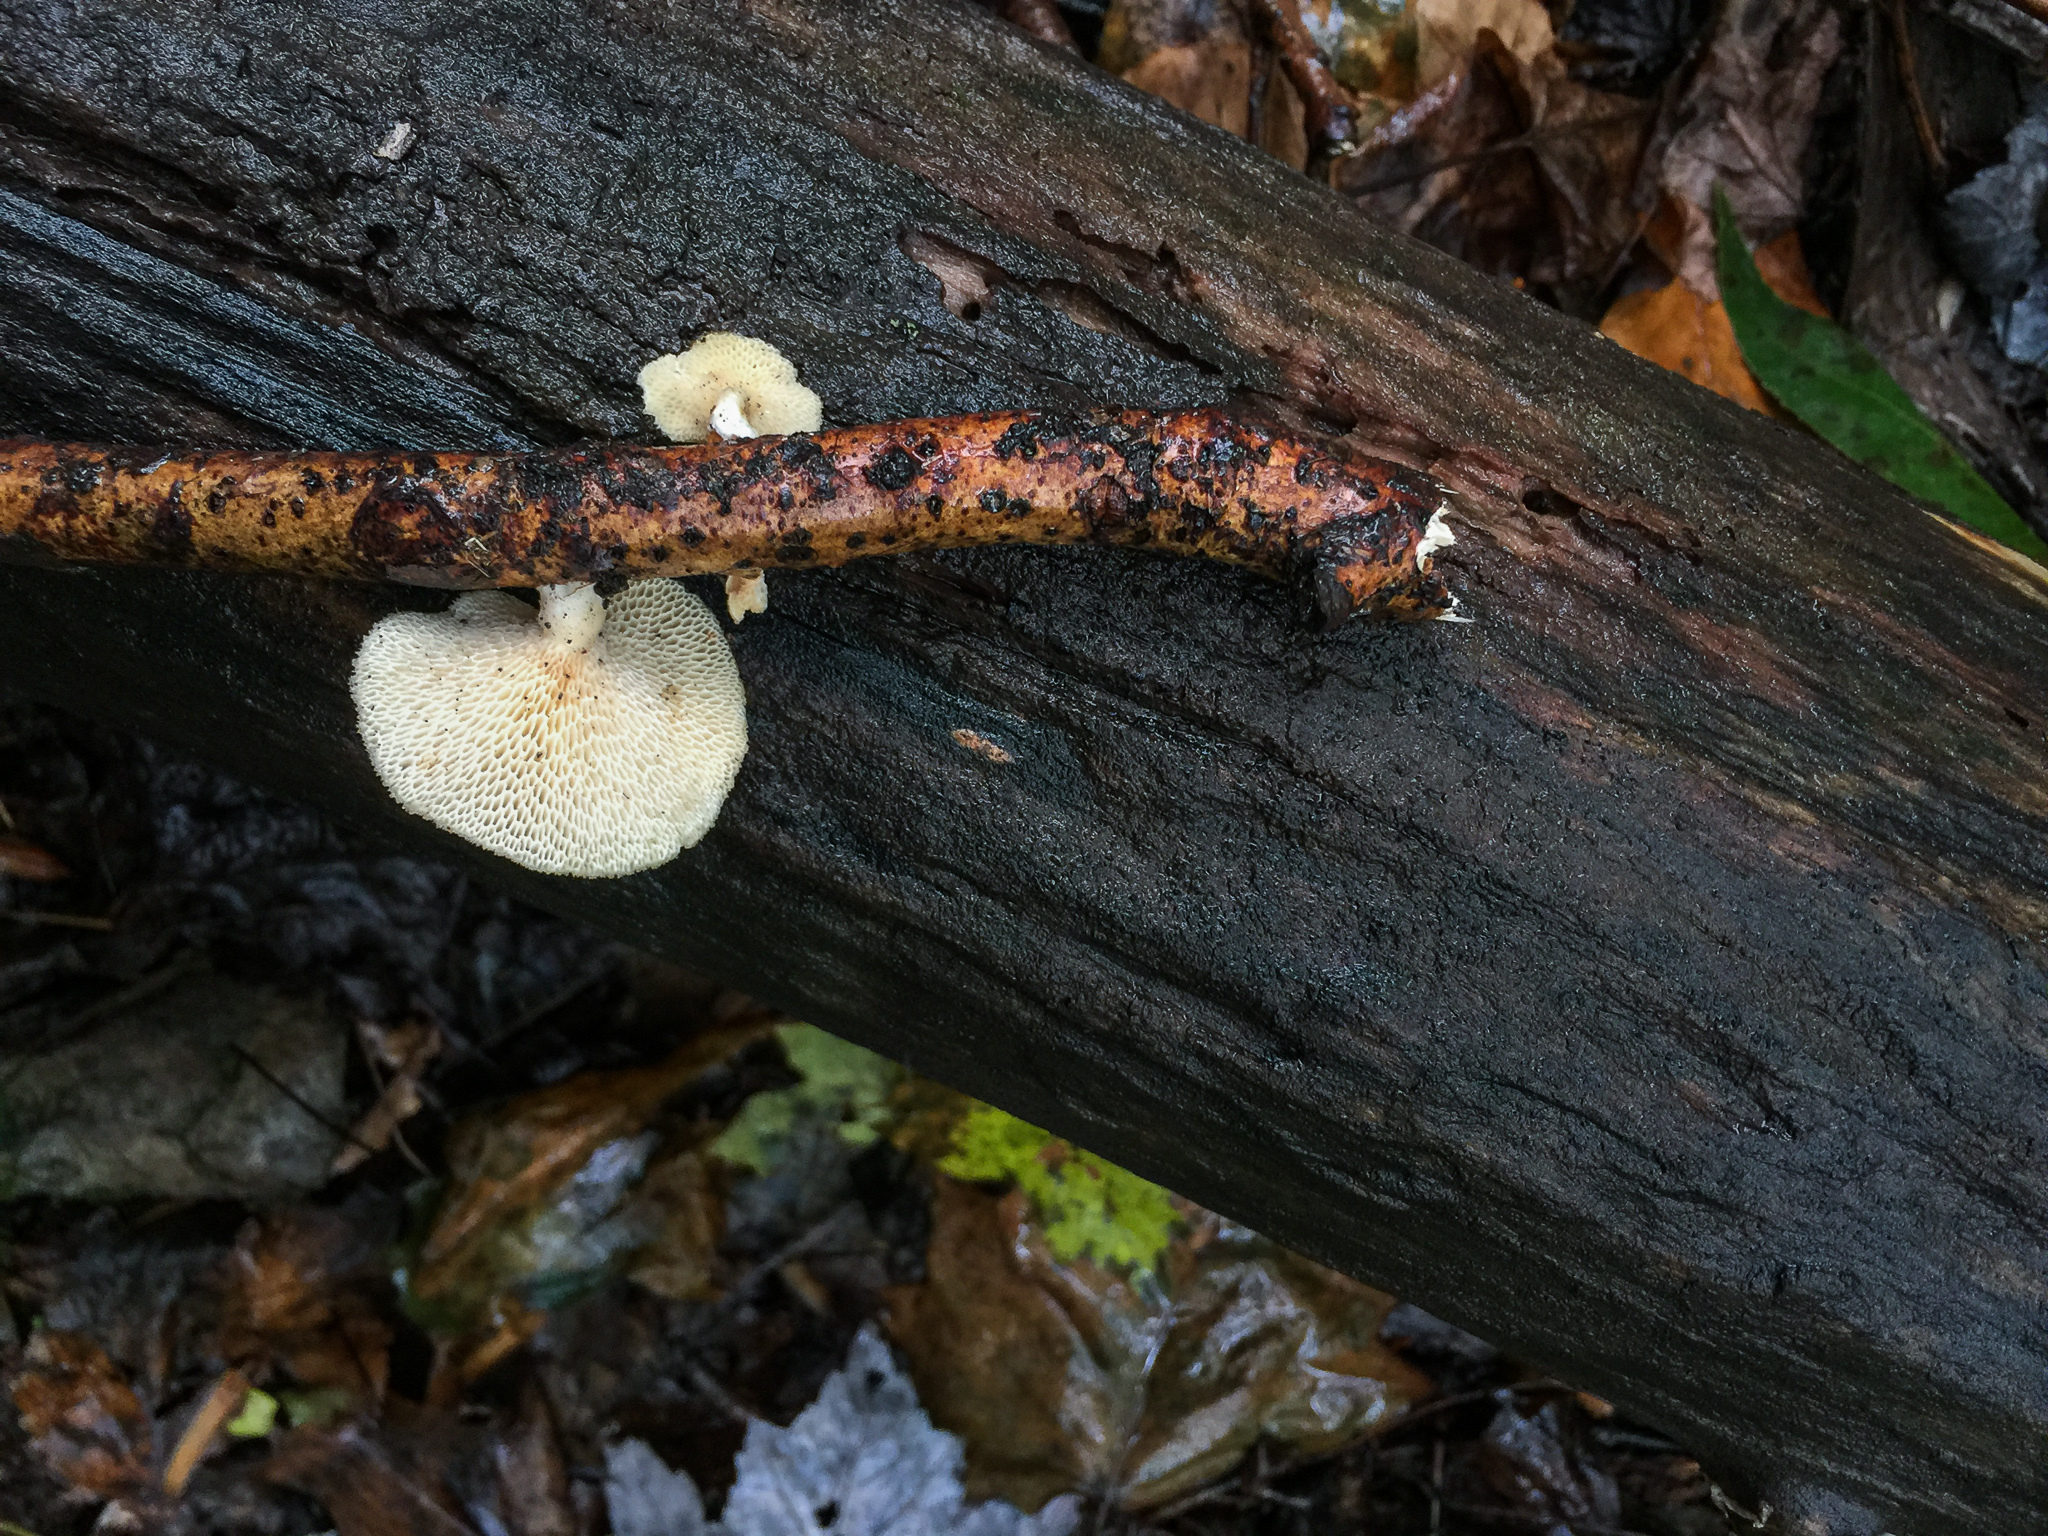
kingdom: Fungi
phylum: Basidiomycota
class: Agaricomycetes
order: Polyporales
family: Polyporaceae
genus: Neofavolus
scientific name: Neofavolus alveolaris
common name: Hexagonal-pored polypore
